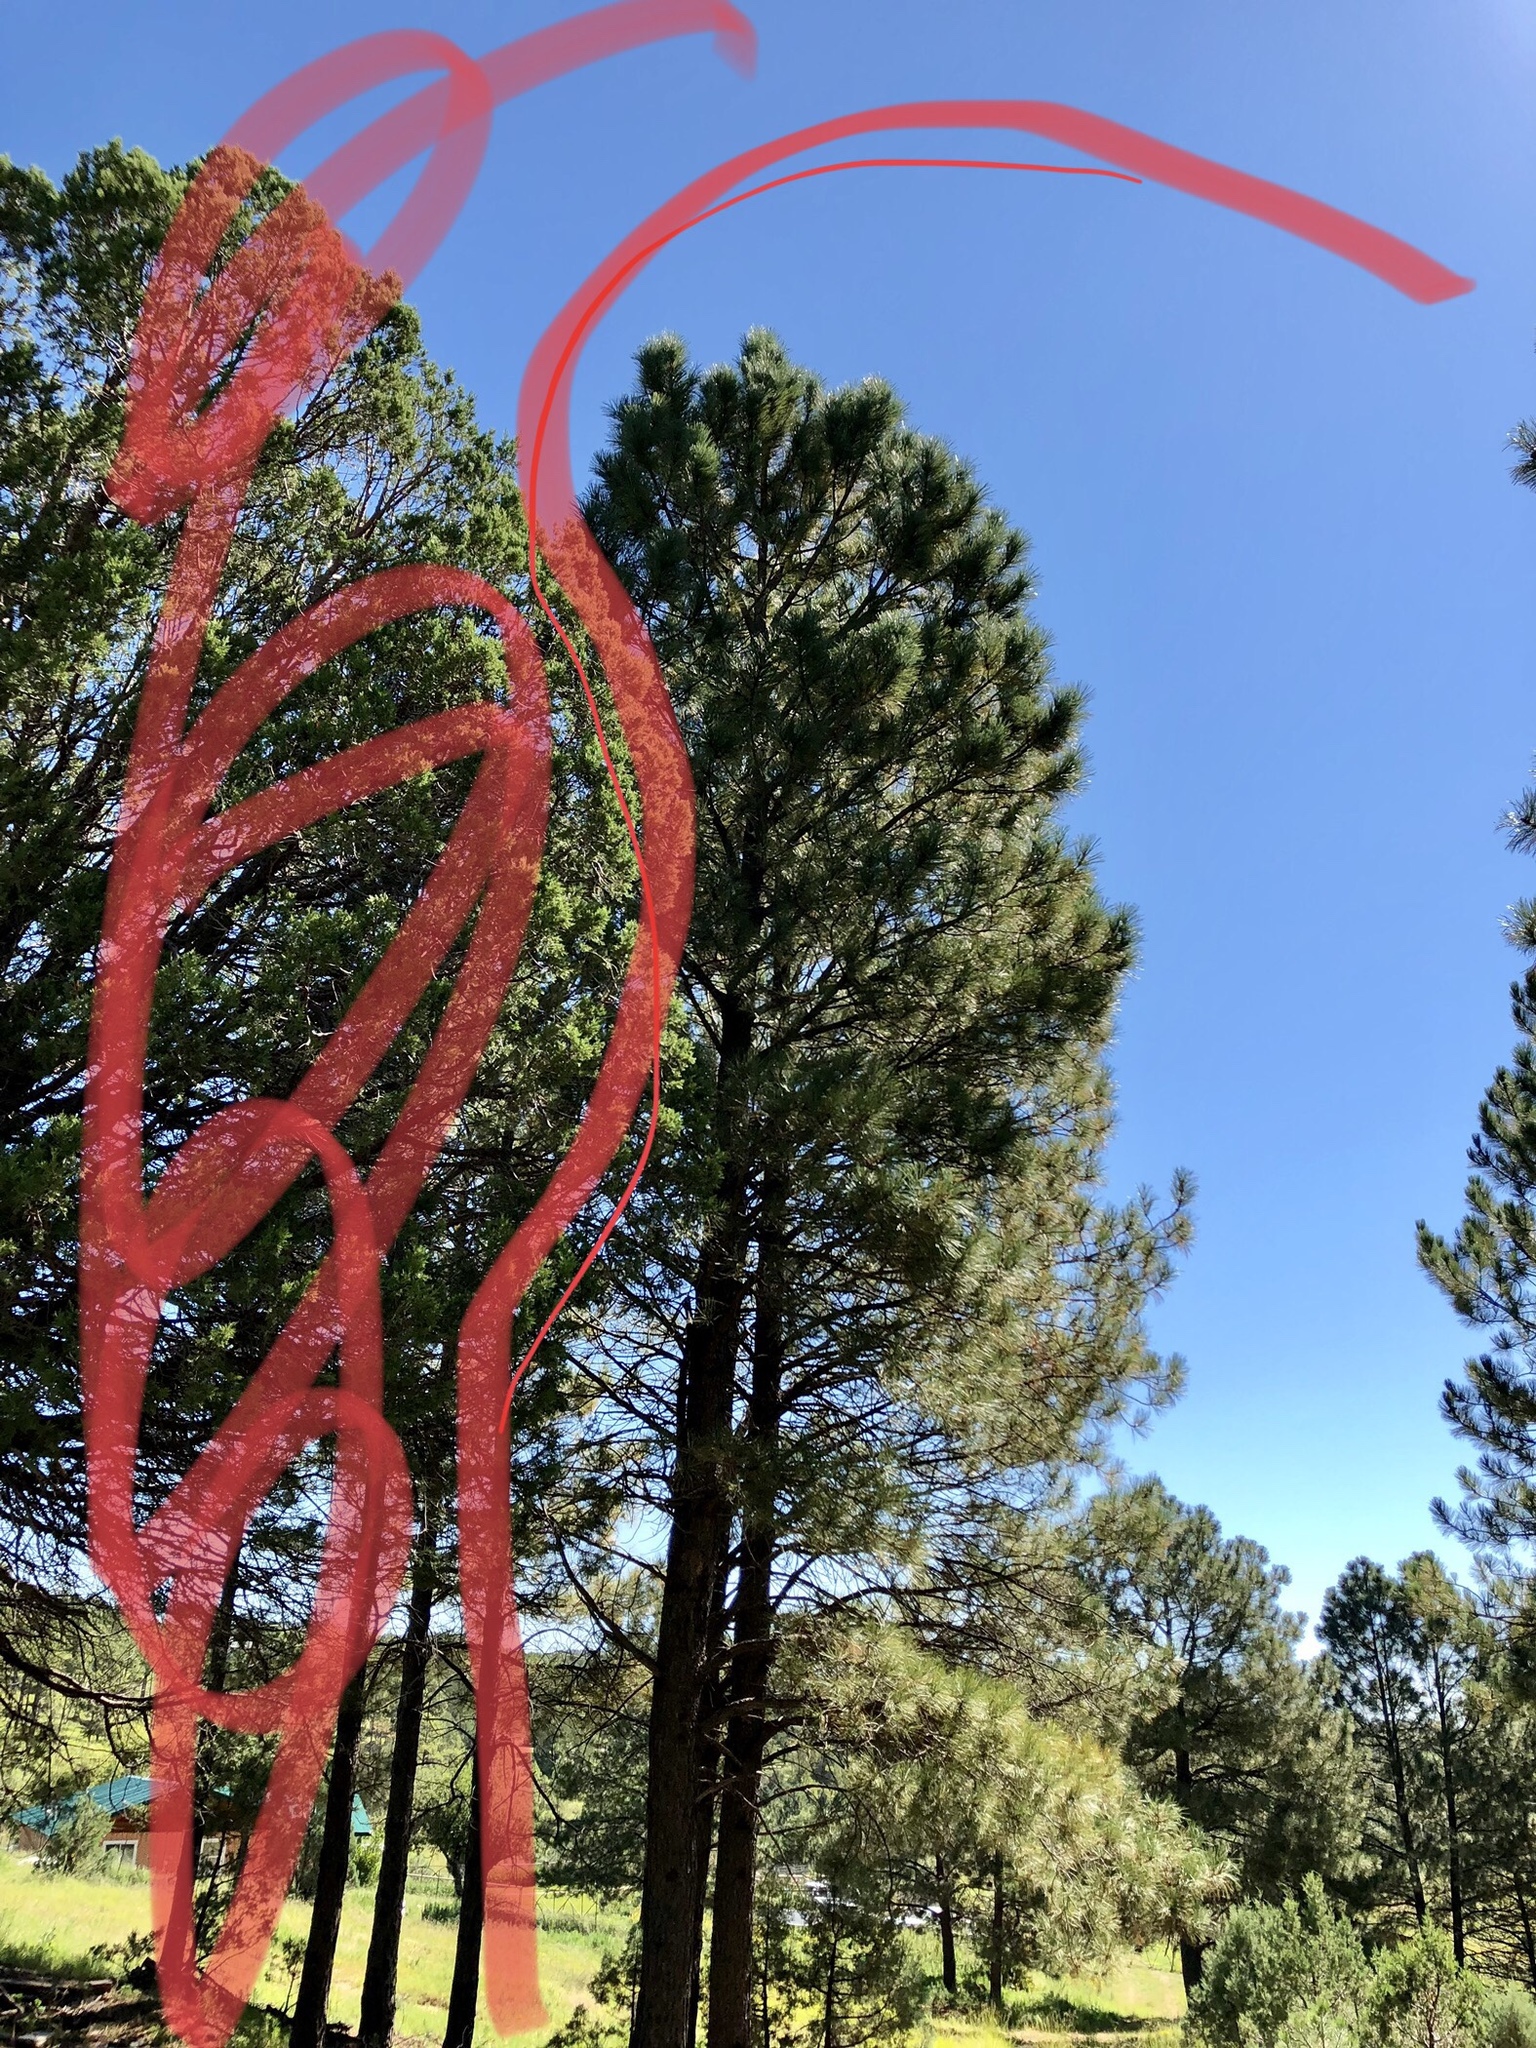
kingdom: Plantae
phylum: Tracheophyta
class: Pinopsida
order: Pinales
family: Pinaceae
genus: Pinus
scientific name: Pinus ponderosa
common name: Western yellow-pine
